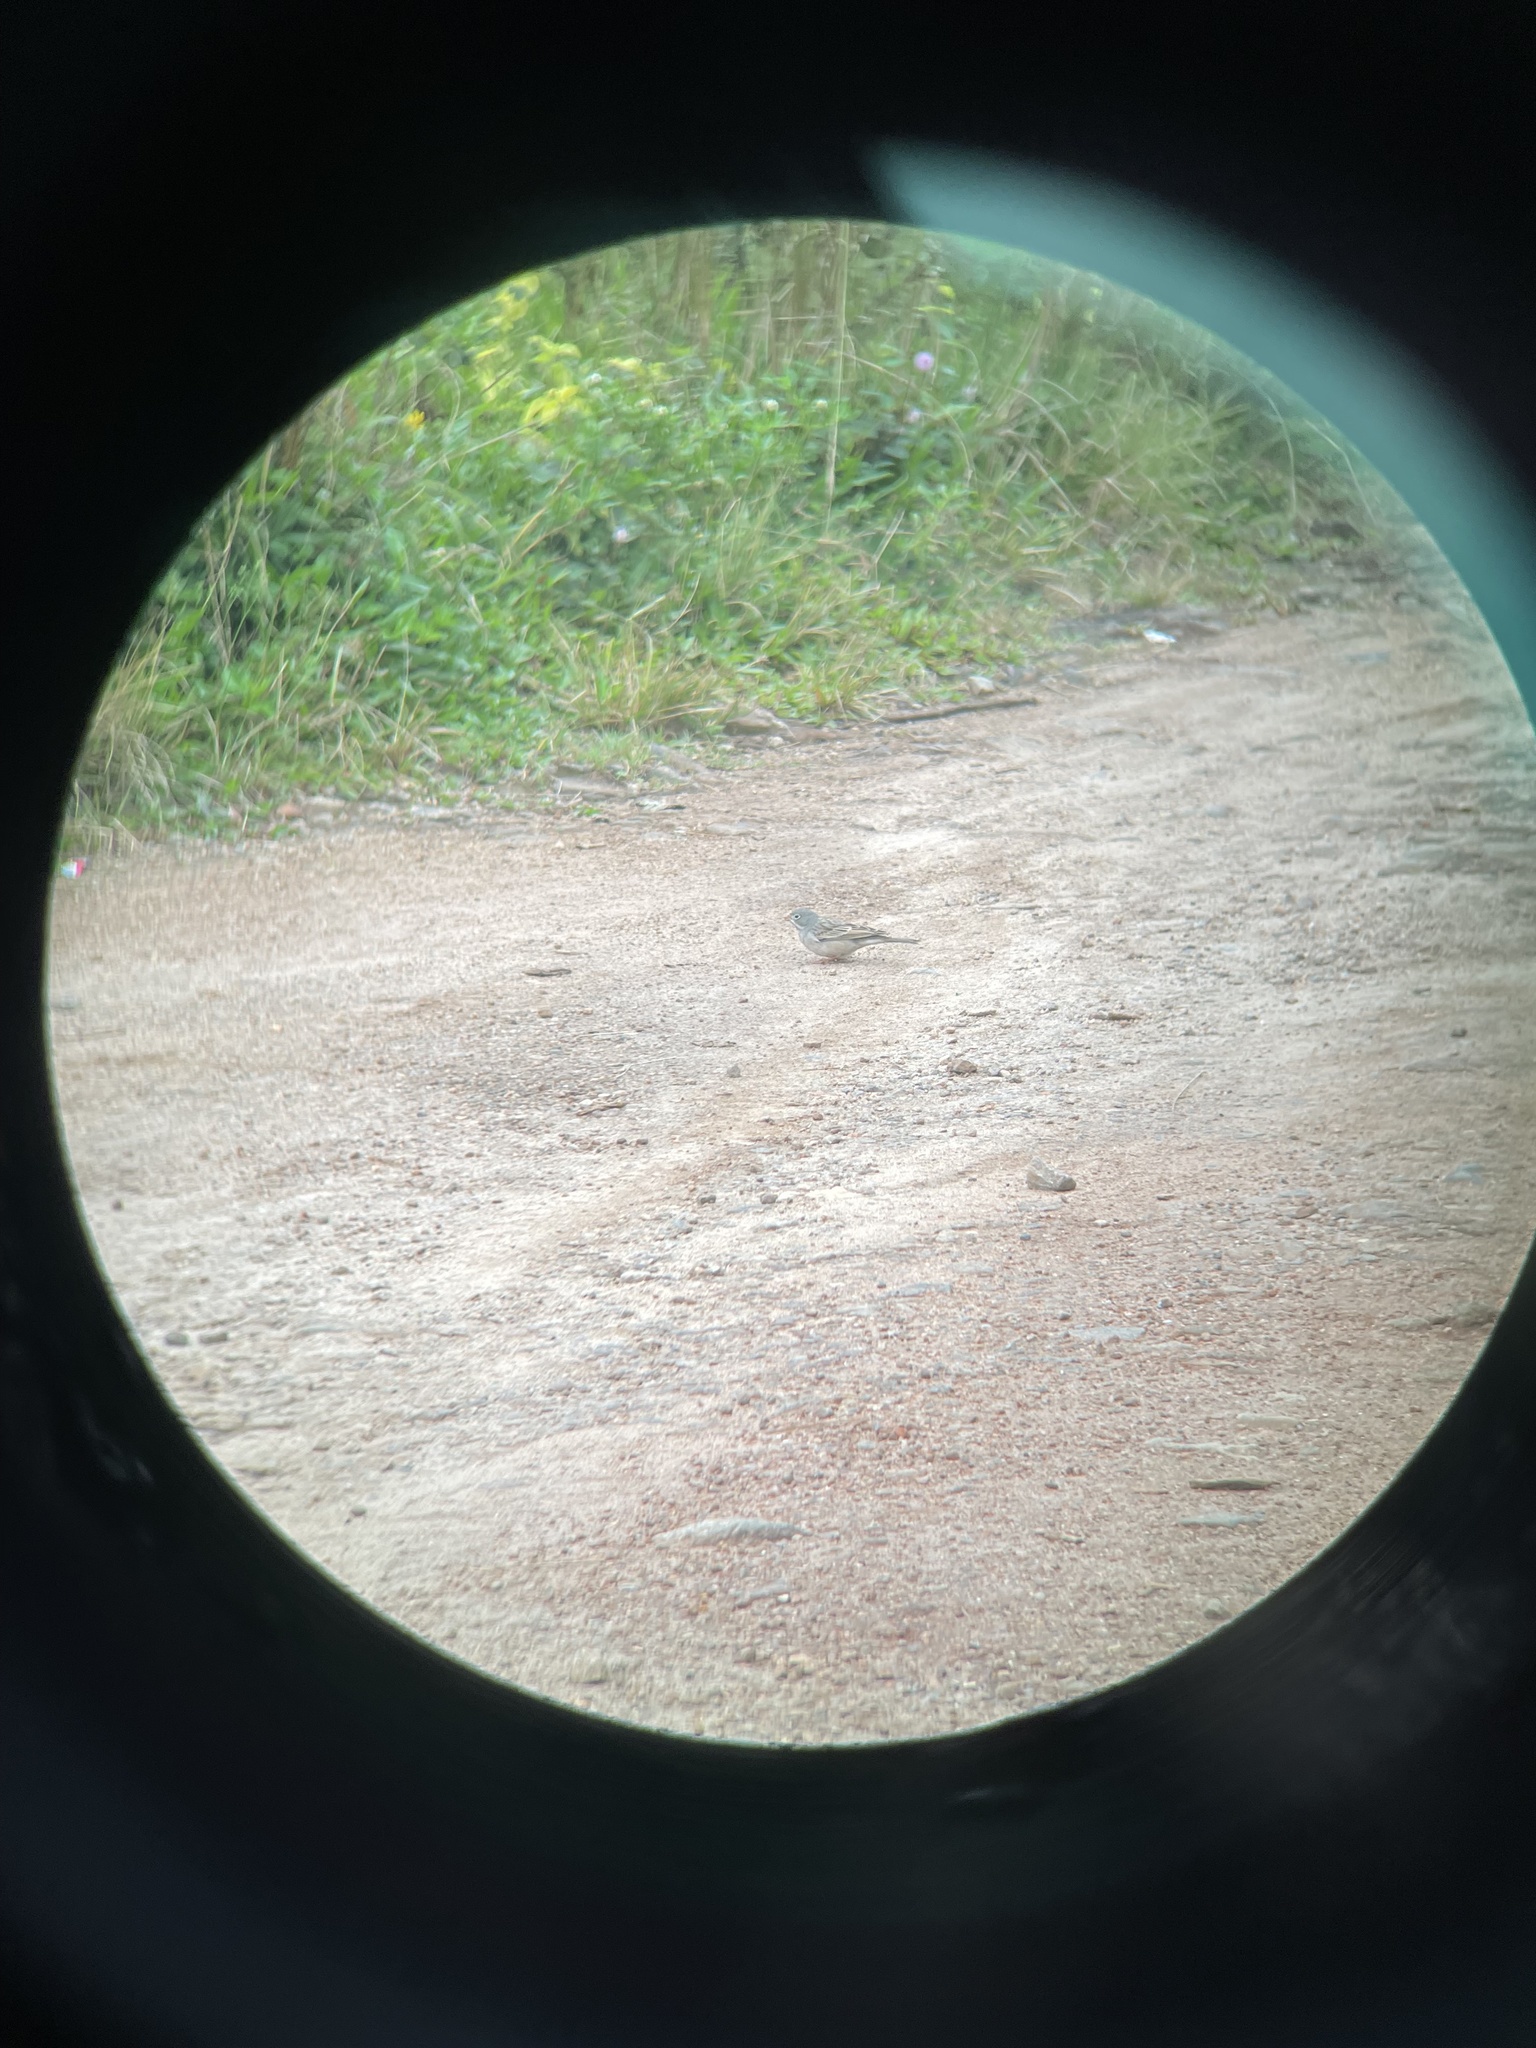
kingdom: Animalia
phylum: Chordata
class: Aves
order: Passeriformes
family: Emberizidae
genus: Emberiza
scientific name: Emberiza buchanani
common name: Grey-necked bunting
